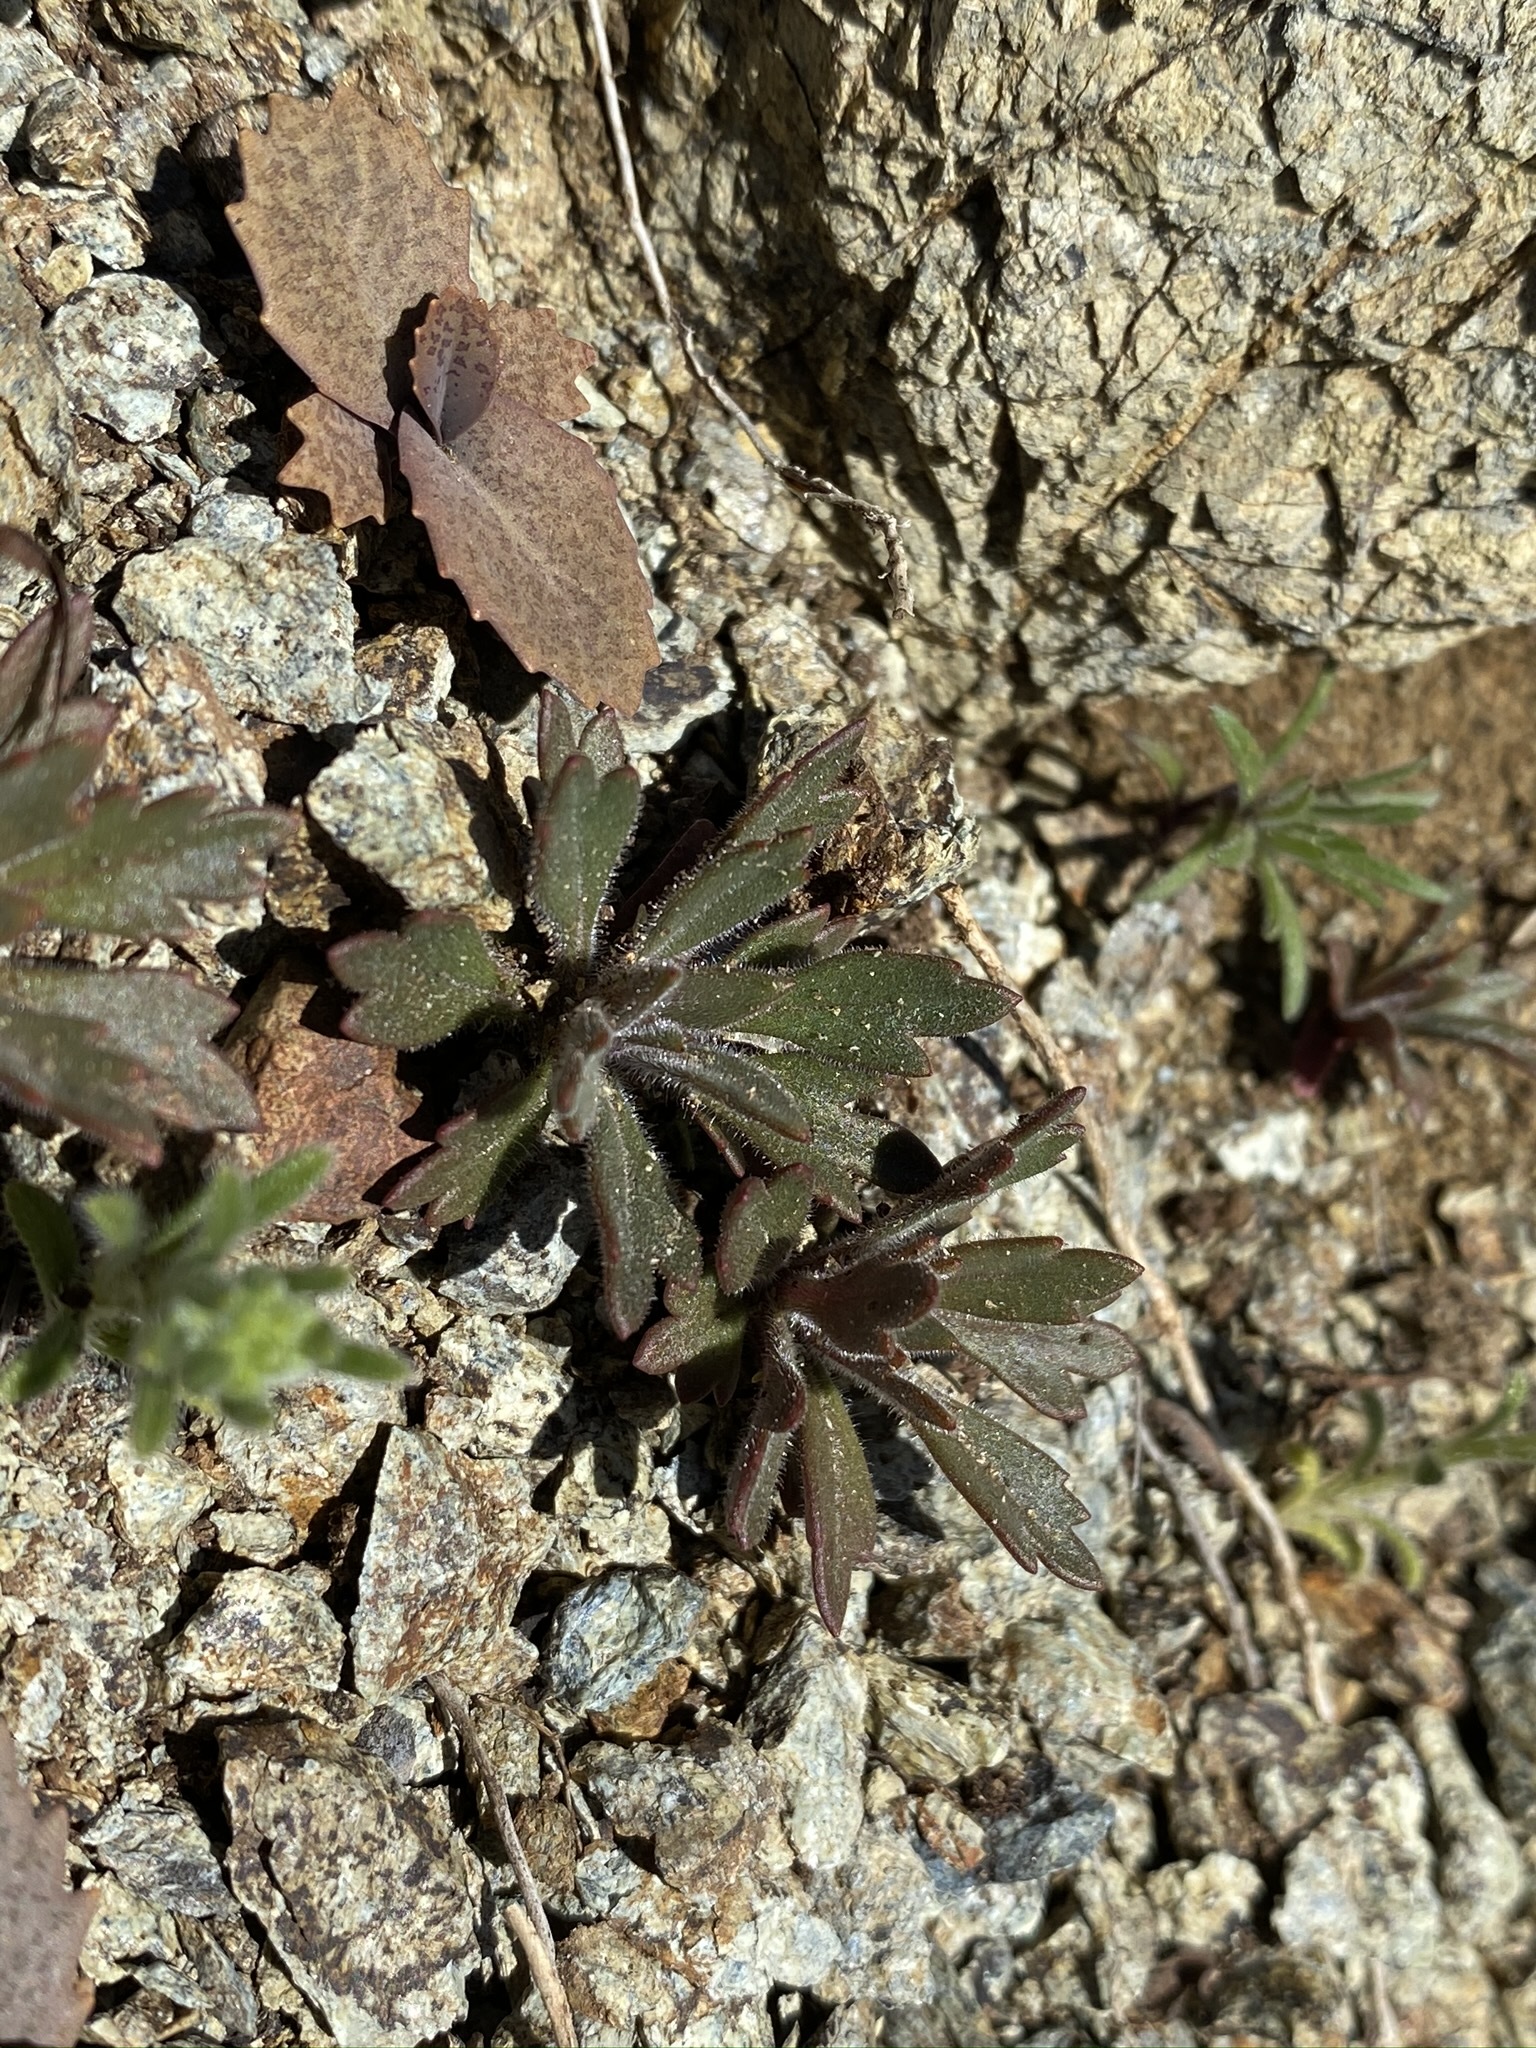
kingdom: Plantae
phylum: Tracheophyta
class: Magnoliopsida
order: Ericales
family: Polemoniaceae
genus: Collomia
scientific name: Collomia diversifolia
